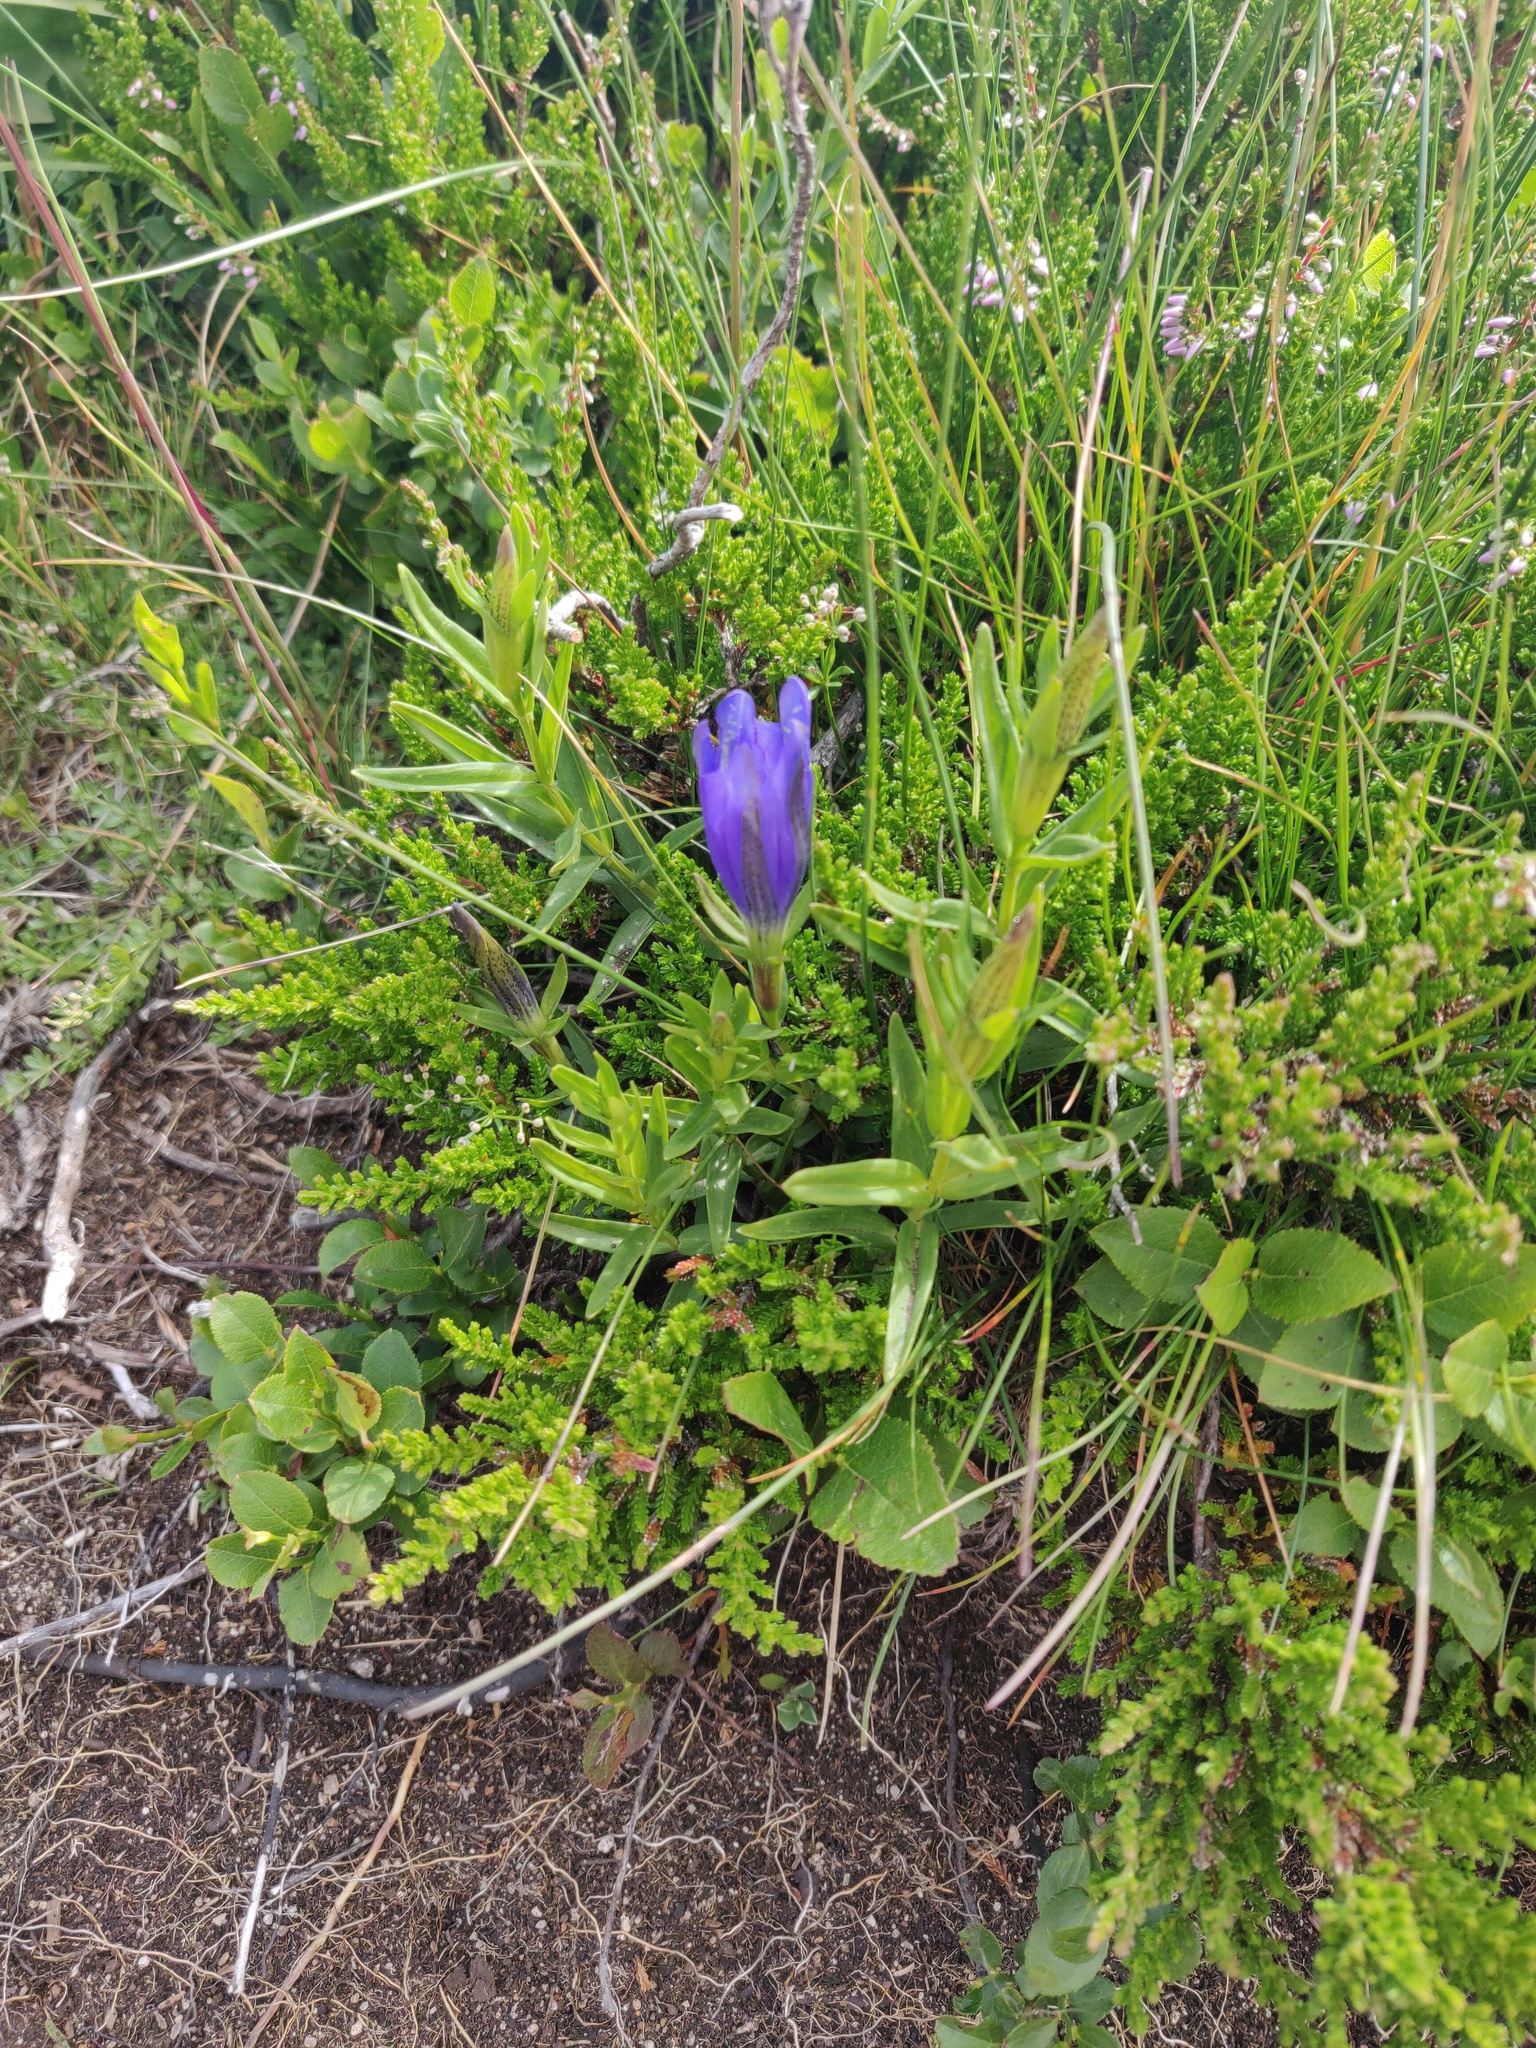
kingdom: Plantae
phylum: Tracheophyta
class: Magnoliopsida
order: Gentianales
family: Gentianaceae
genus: Gentiana
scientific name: Gentiana pneumonanthe
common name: Marsh gentian
